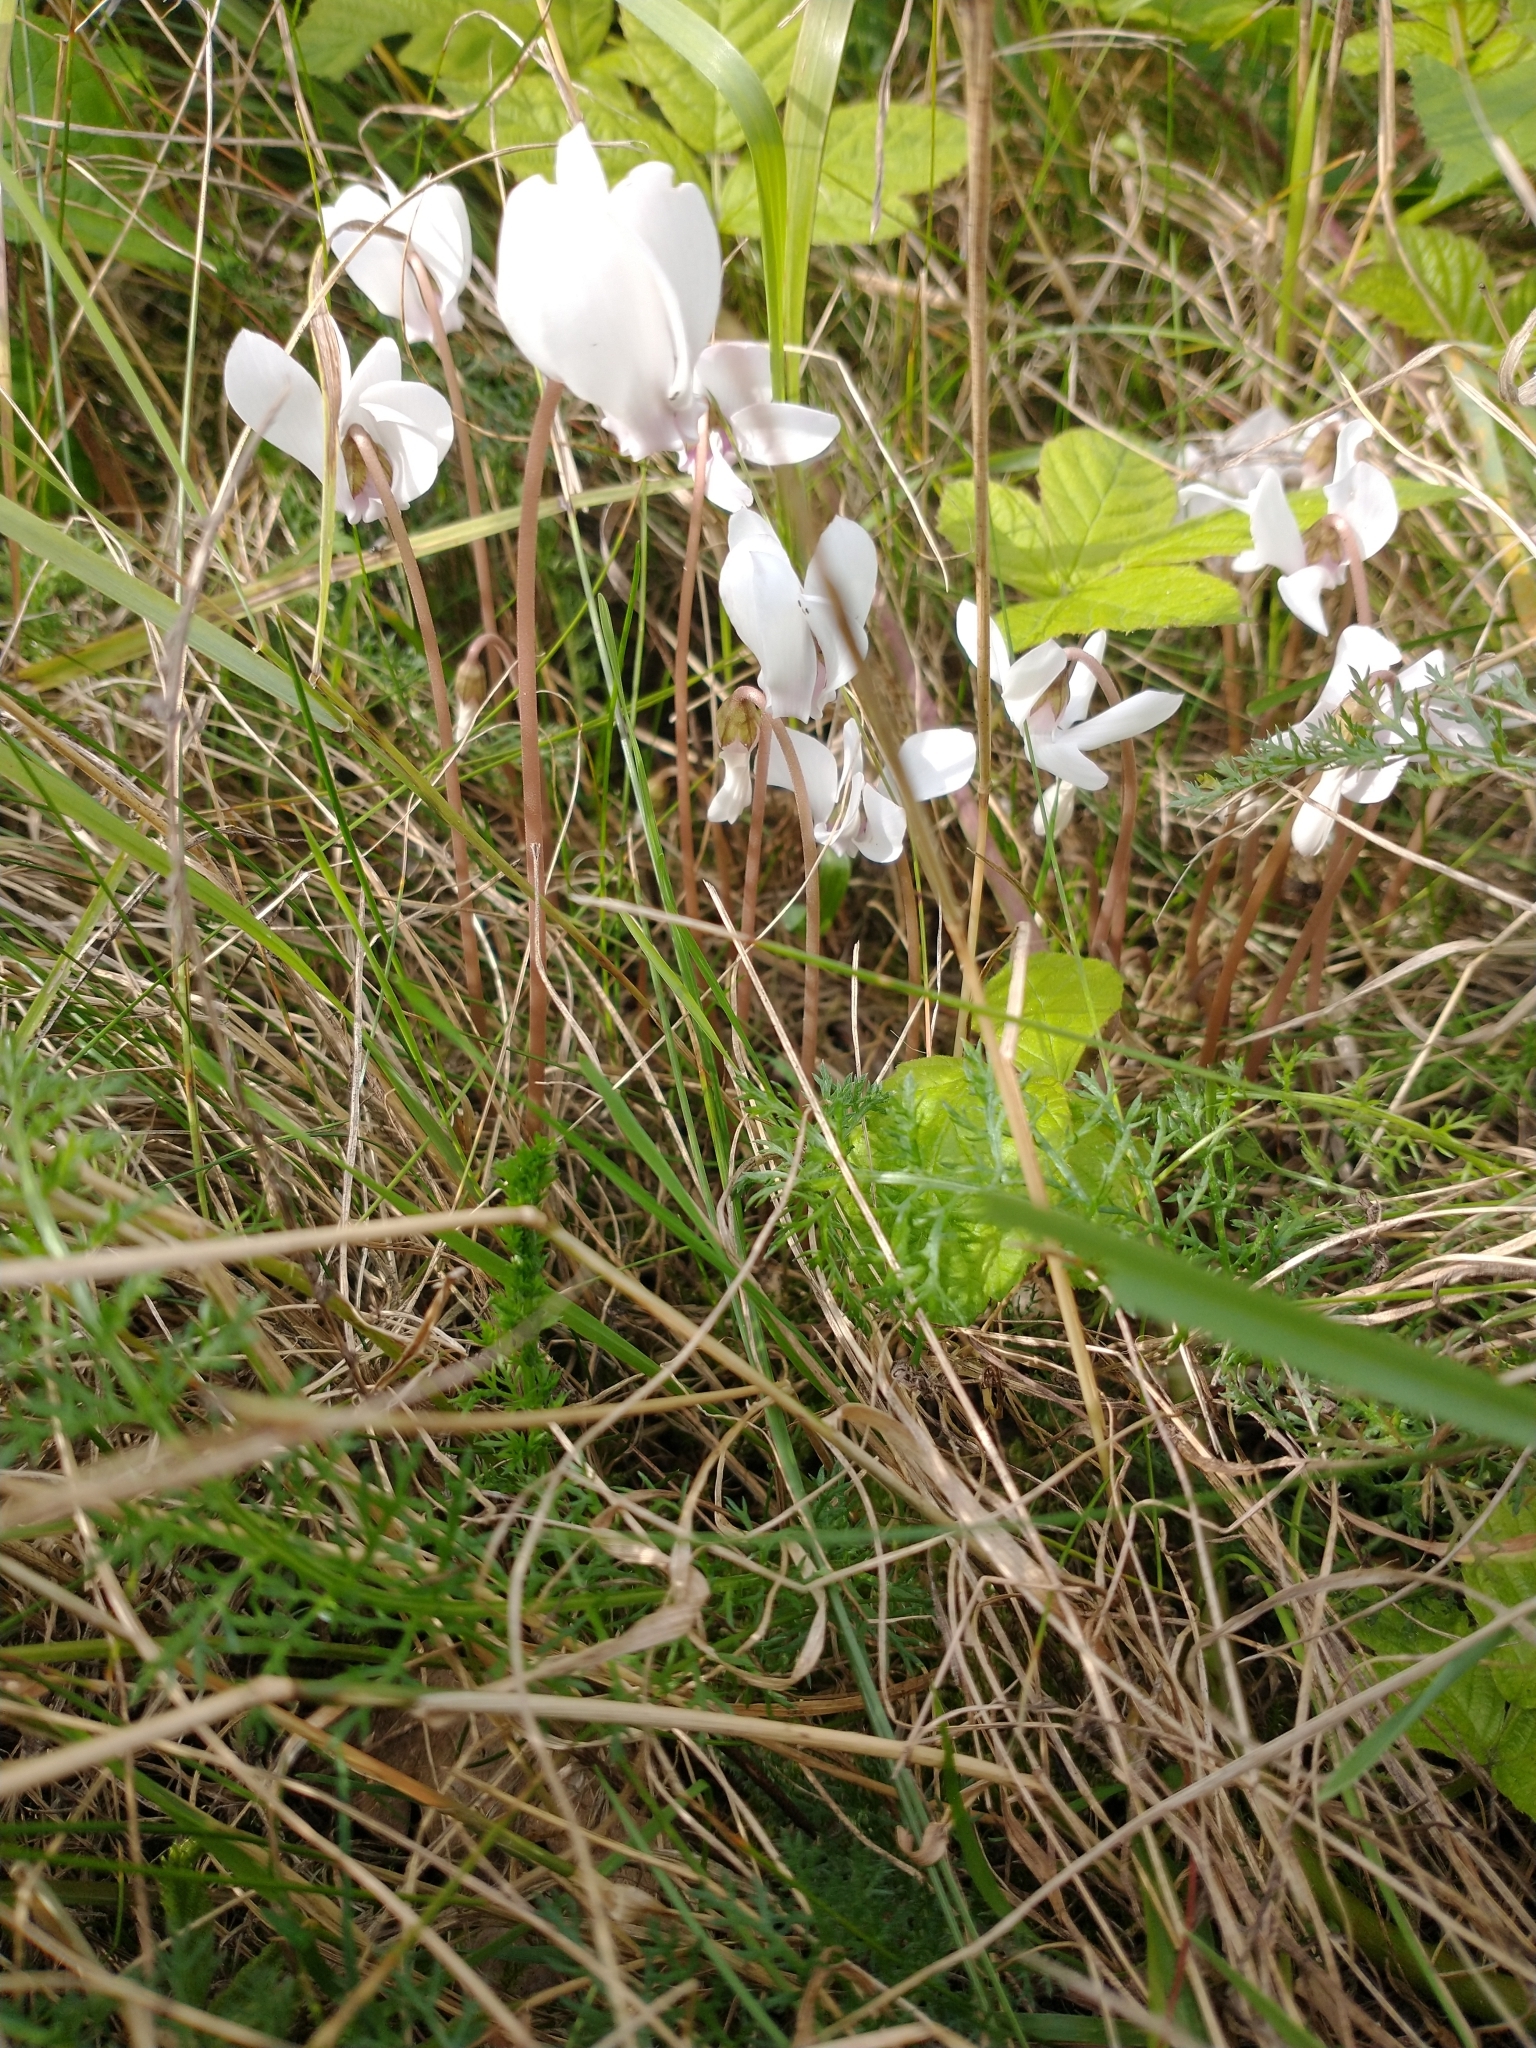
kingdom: Plantae
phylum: Tracheophyta
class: Magnoliopsida
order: Ericales
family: Primulaceae
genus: Cyclamen
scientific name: Cyclamen hederifolium
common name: Sowbread
